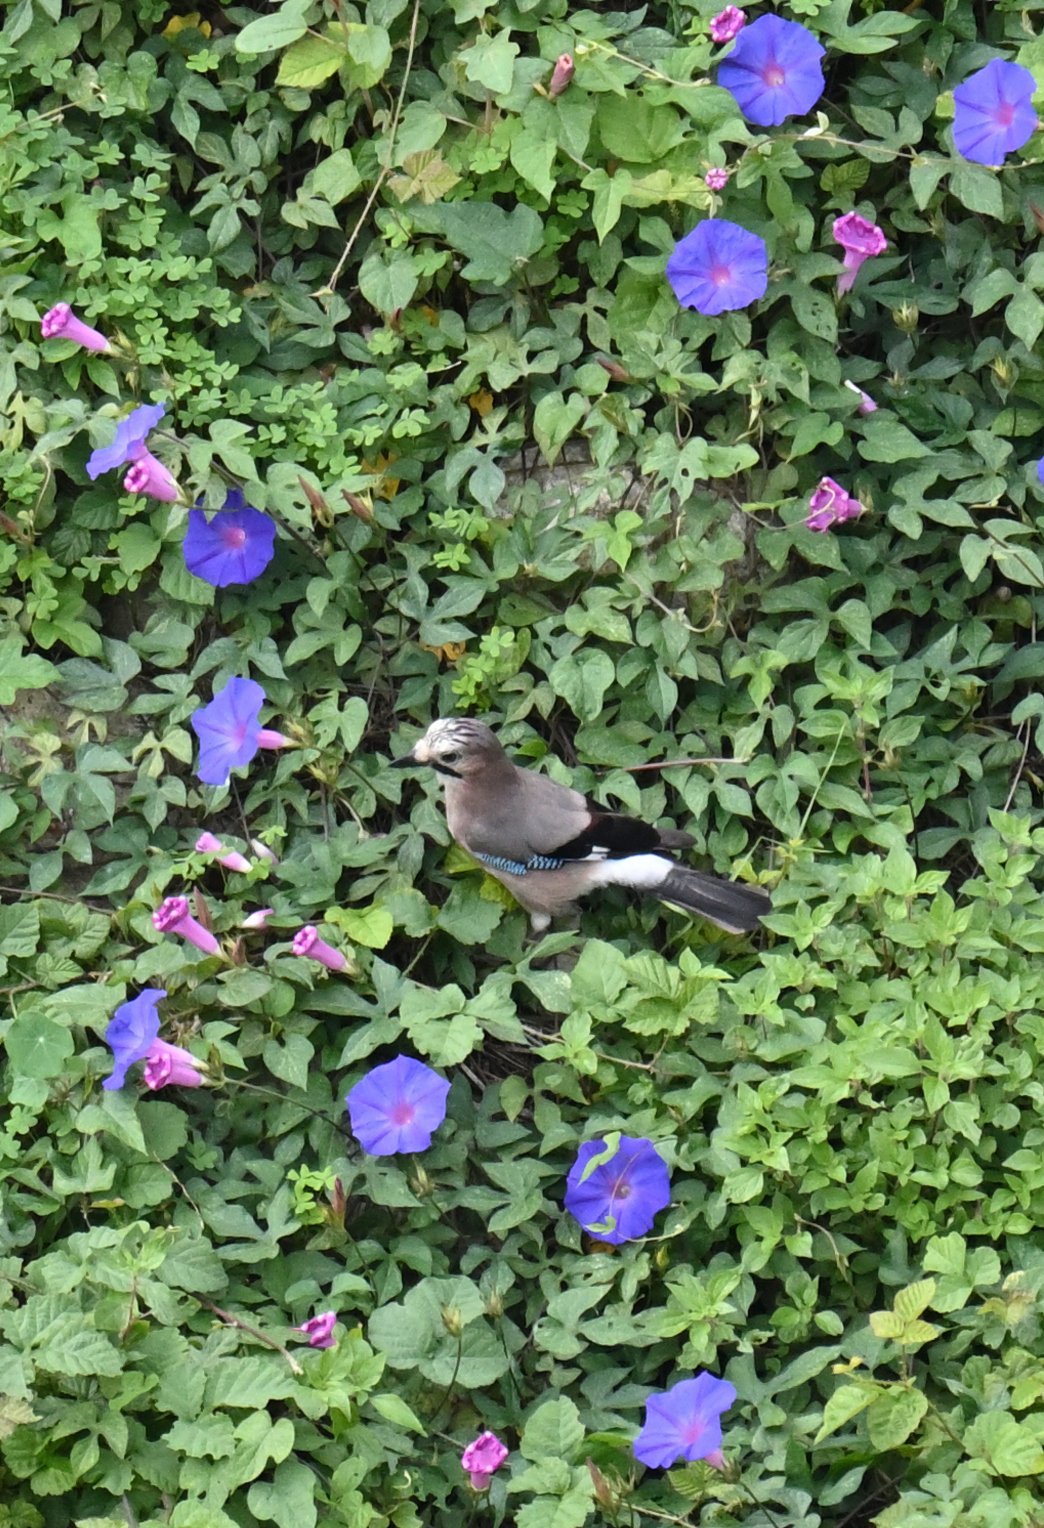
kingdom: Animalia
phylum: Chordata
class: Aves
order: Passeriformes
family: Corvidae
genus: Garrulus
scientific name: Garrulus glandarius
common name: Eurasian jay
